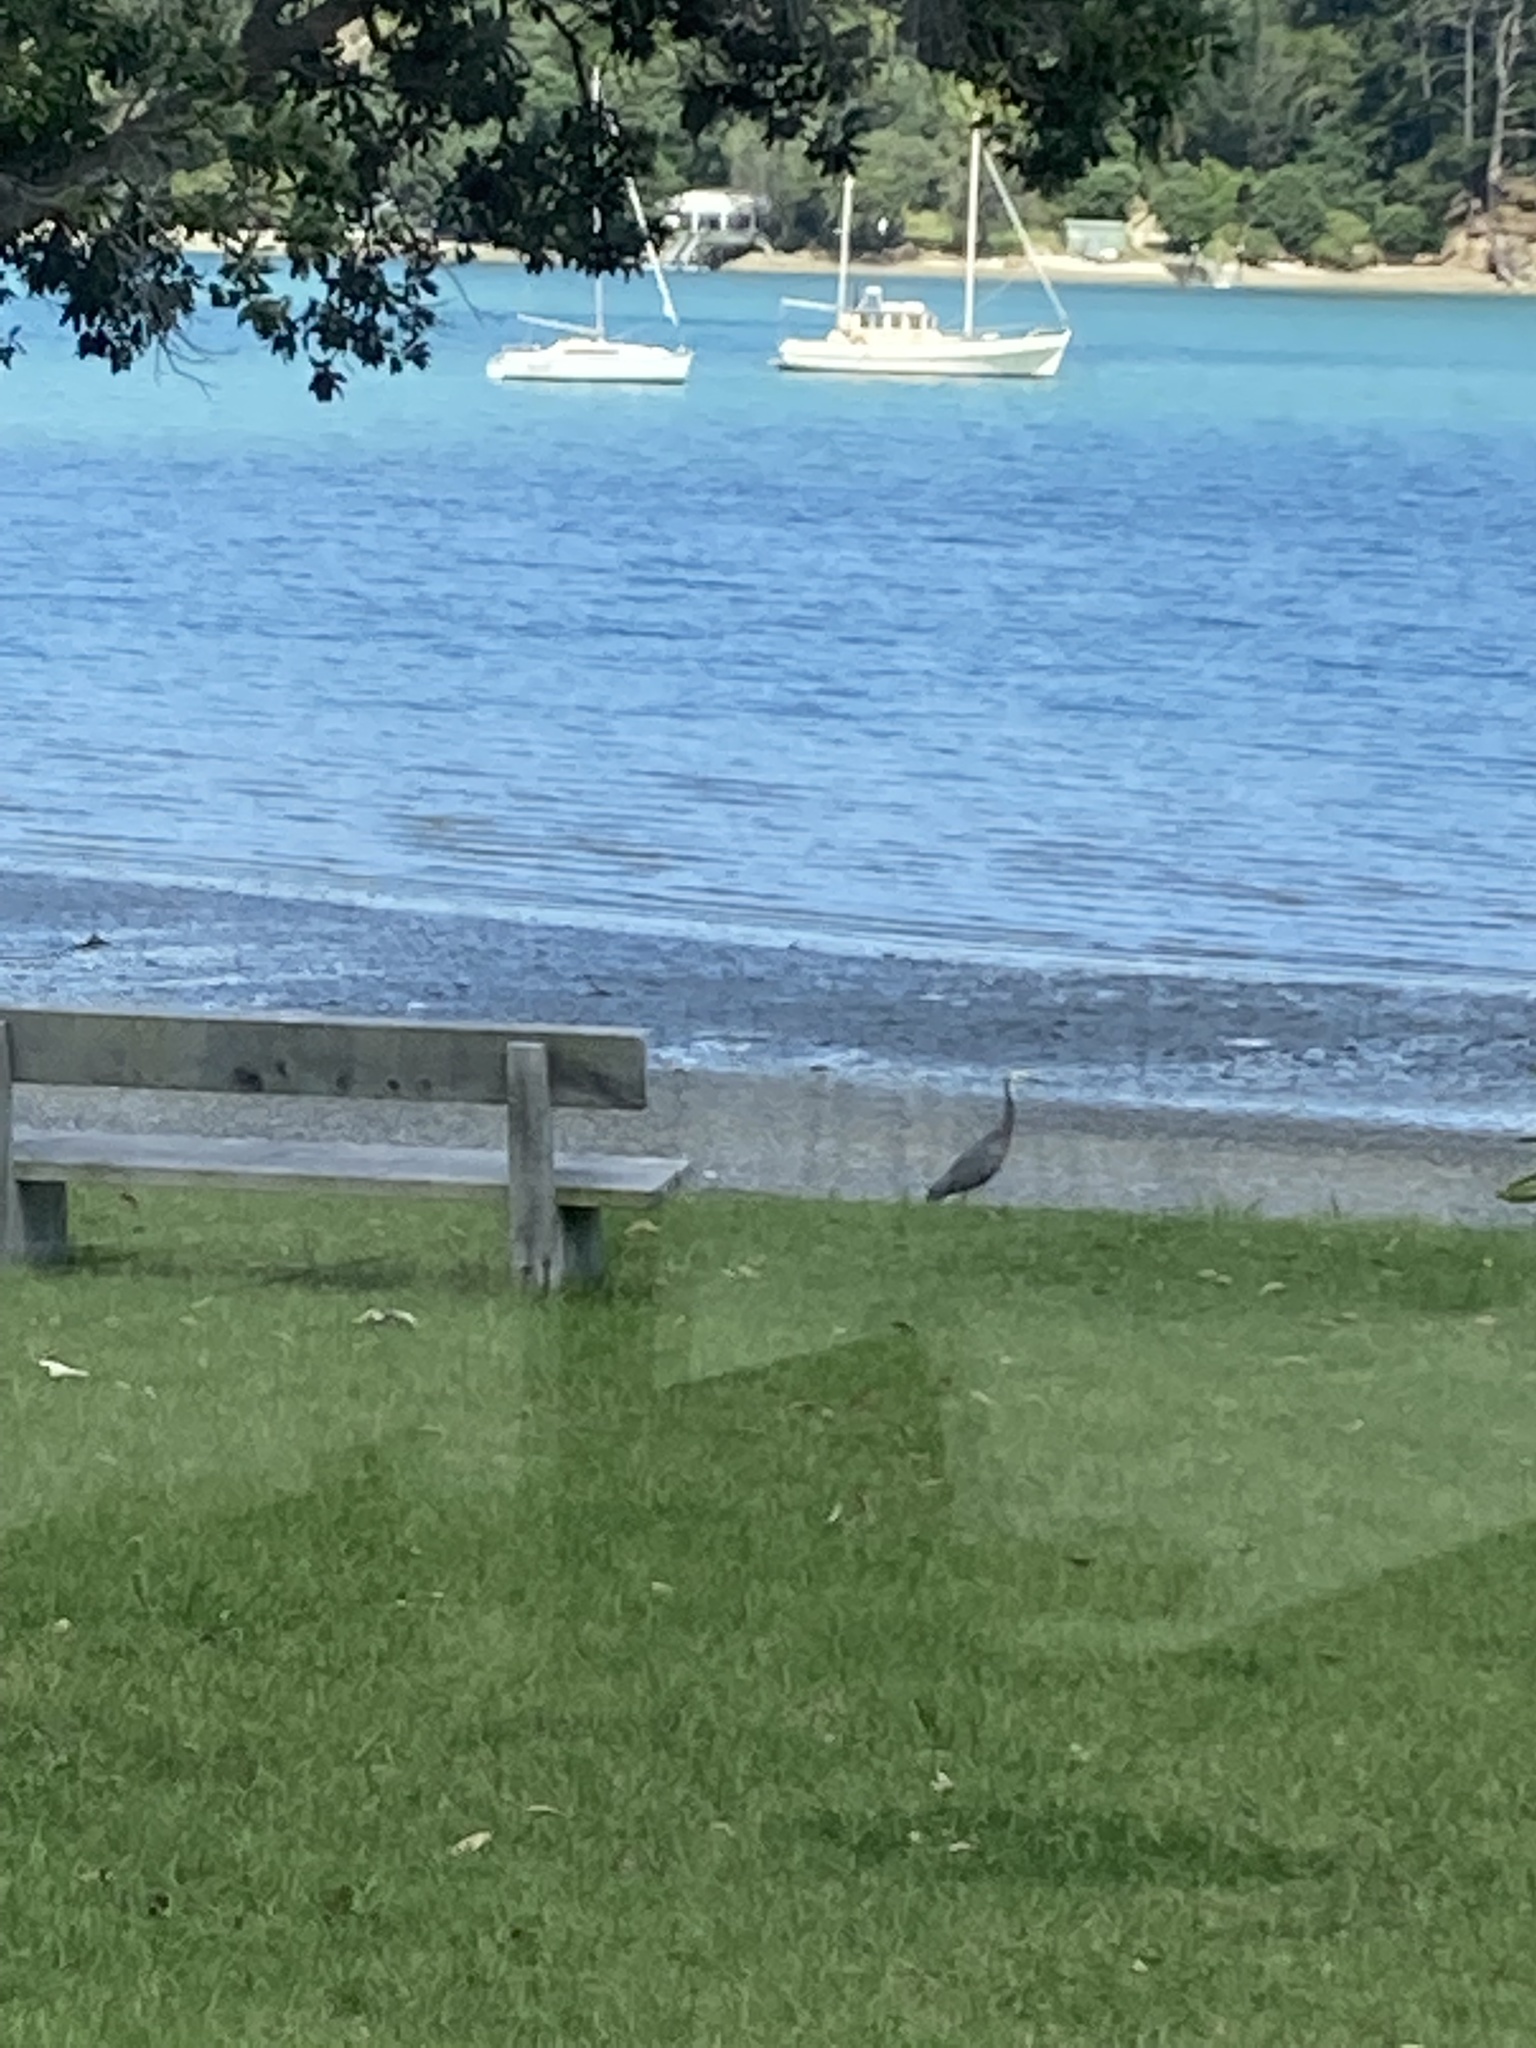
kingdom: Animalia
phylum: Chordata
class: Aves
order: Pelecaniformes
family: Ardeidae
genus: Egretta
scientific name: Egretta novaehollandiae
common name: White-faced heron
